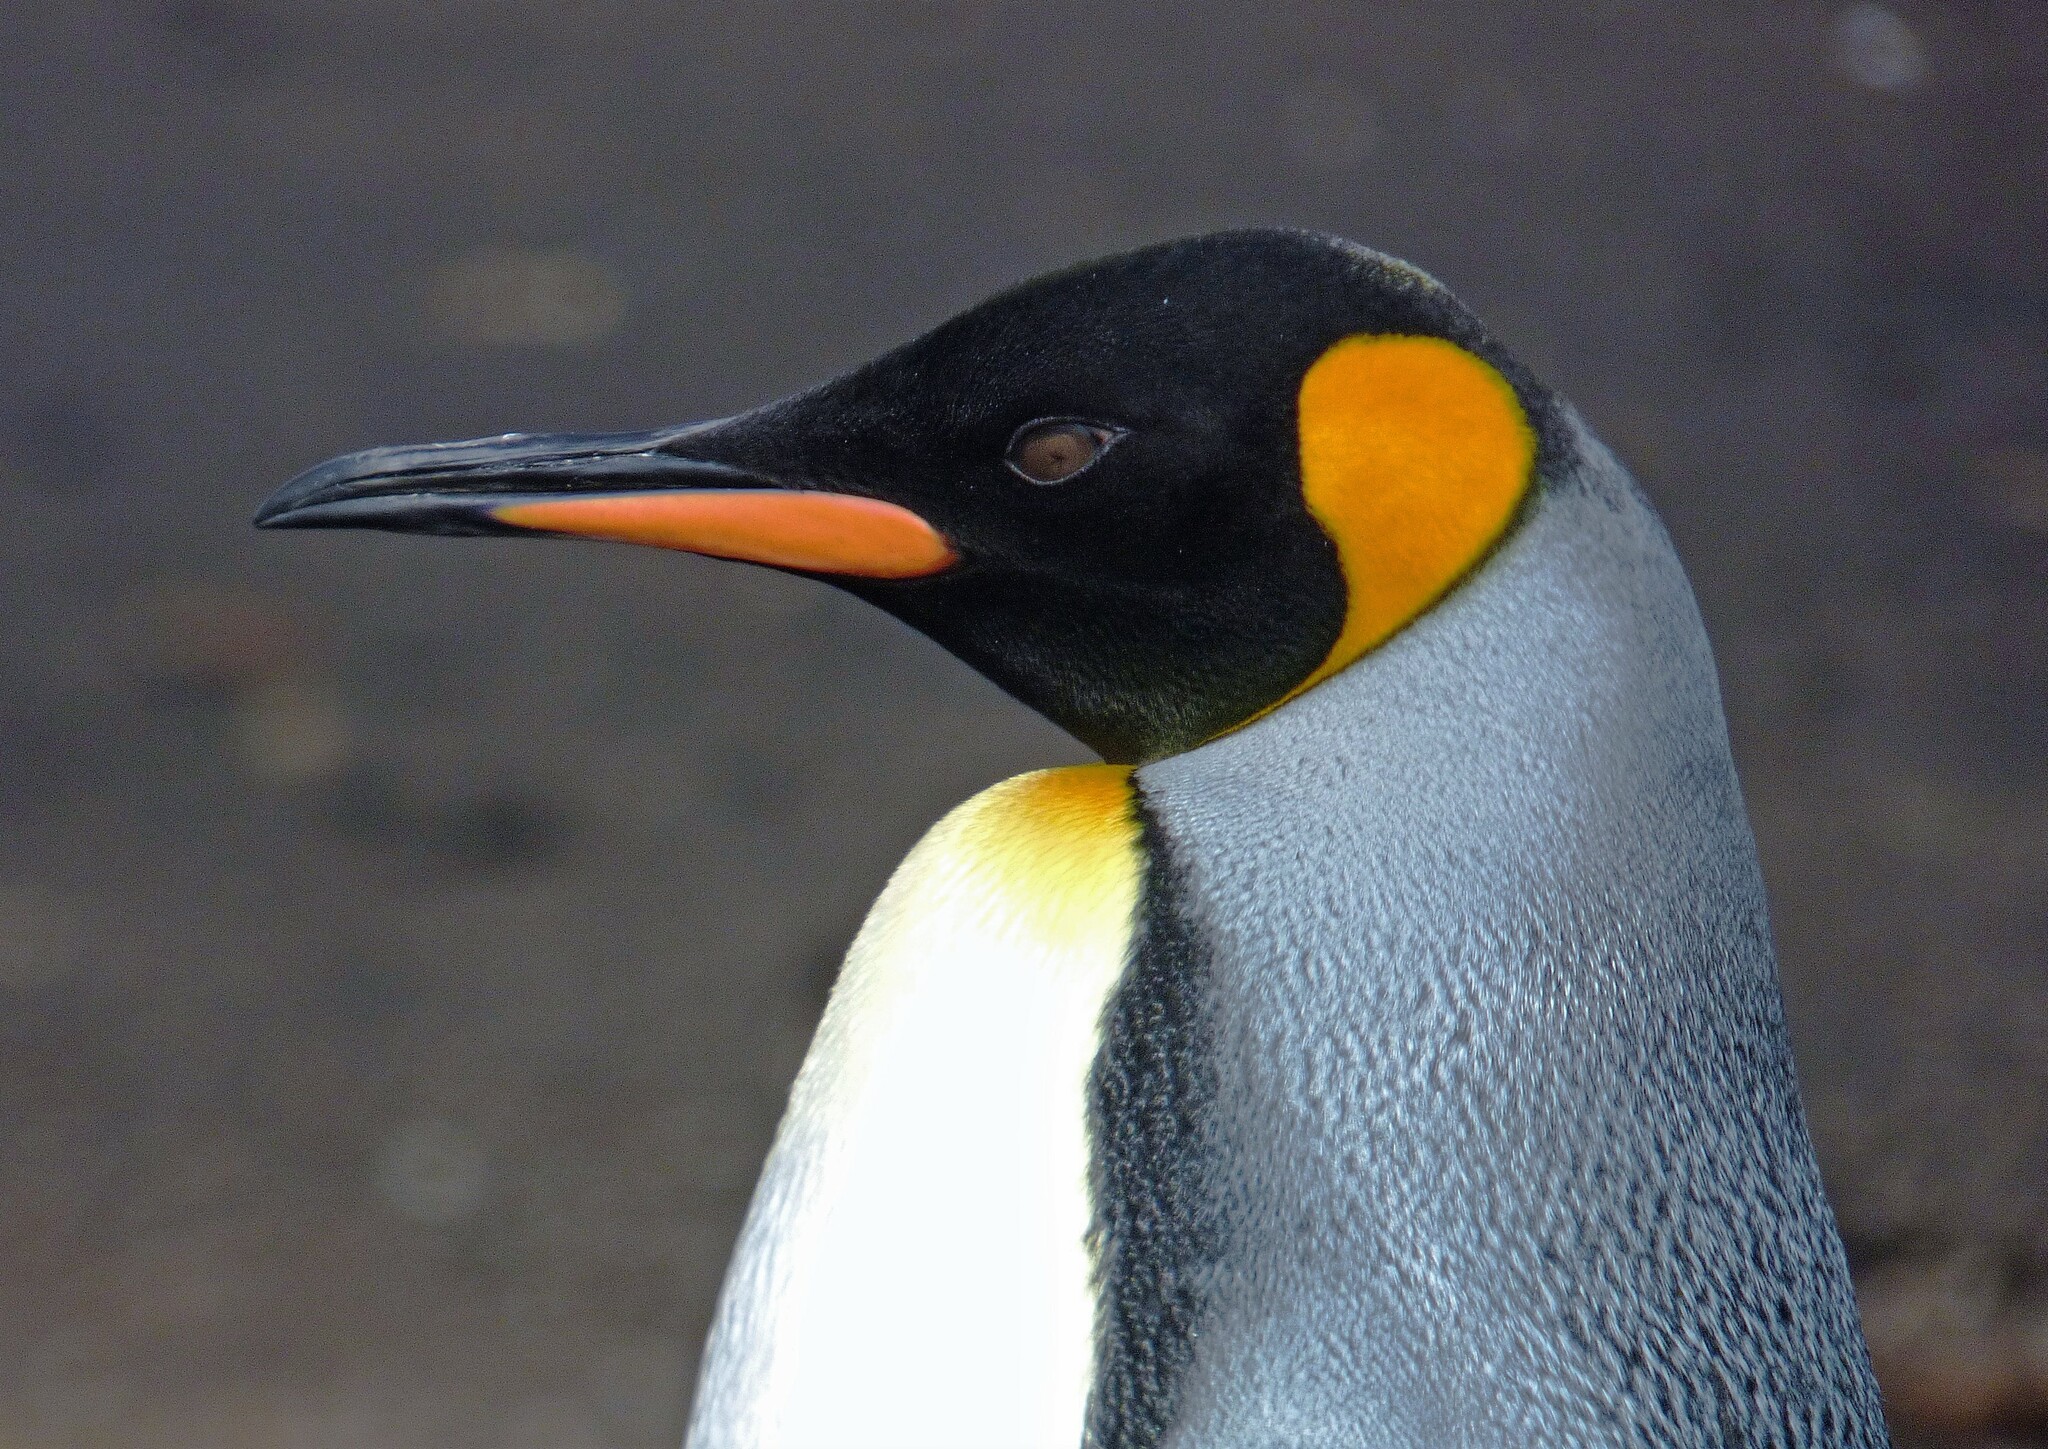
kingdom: Animalia
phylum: Chordata
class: Aves
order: Sphenisciformes
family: Spheniscidae
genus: Aptenodytes
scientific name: Aptenodytes patagonicus
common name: King penguin
